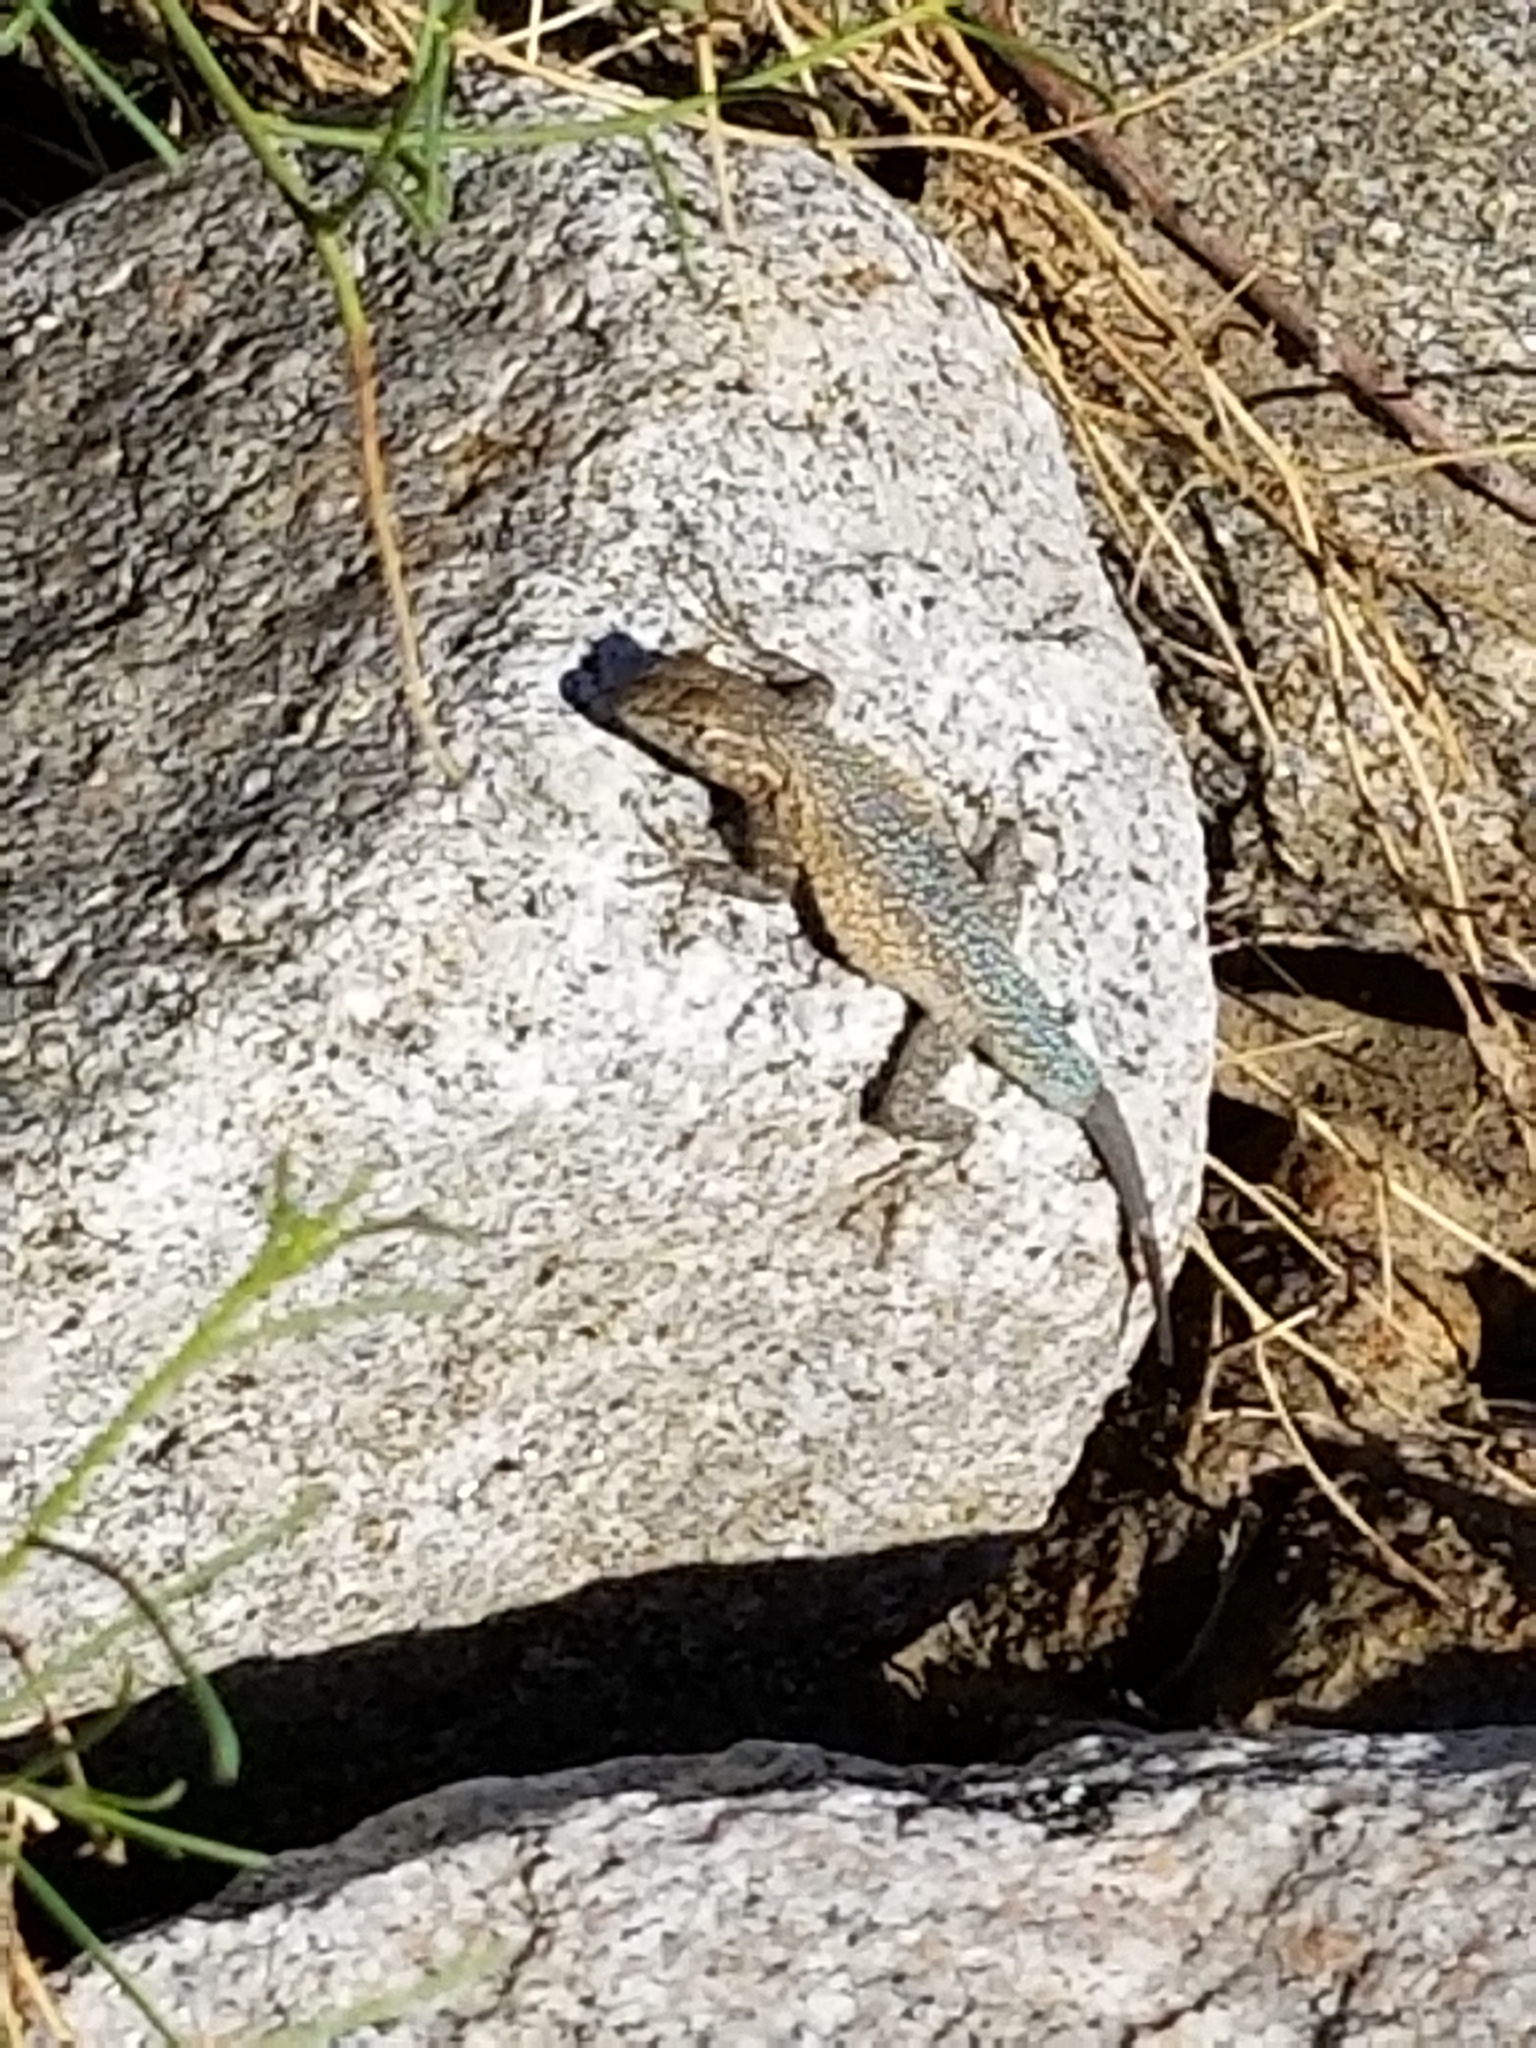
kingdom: Animalia
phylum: Chordata
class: Squamata
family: Phrynosomatidae
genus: Uta
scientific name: Uta stansburiana
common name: Side-blotched lizard
